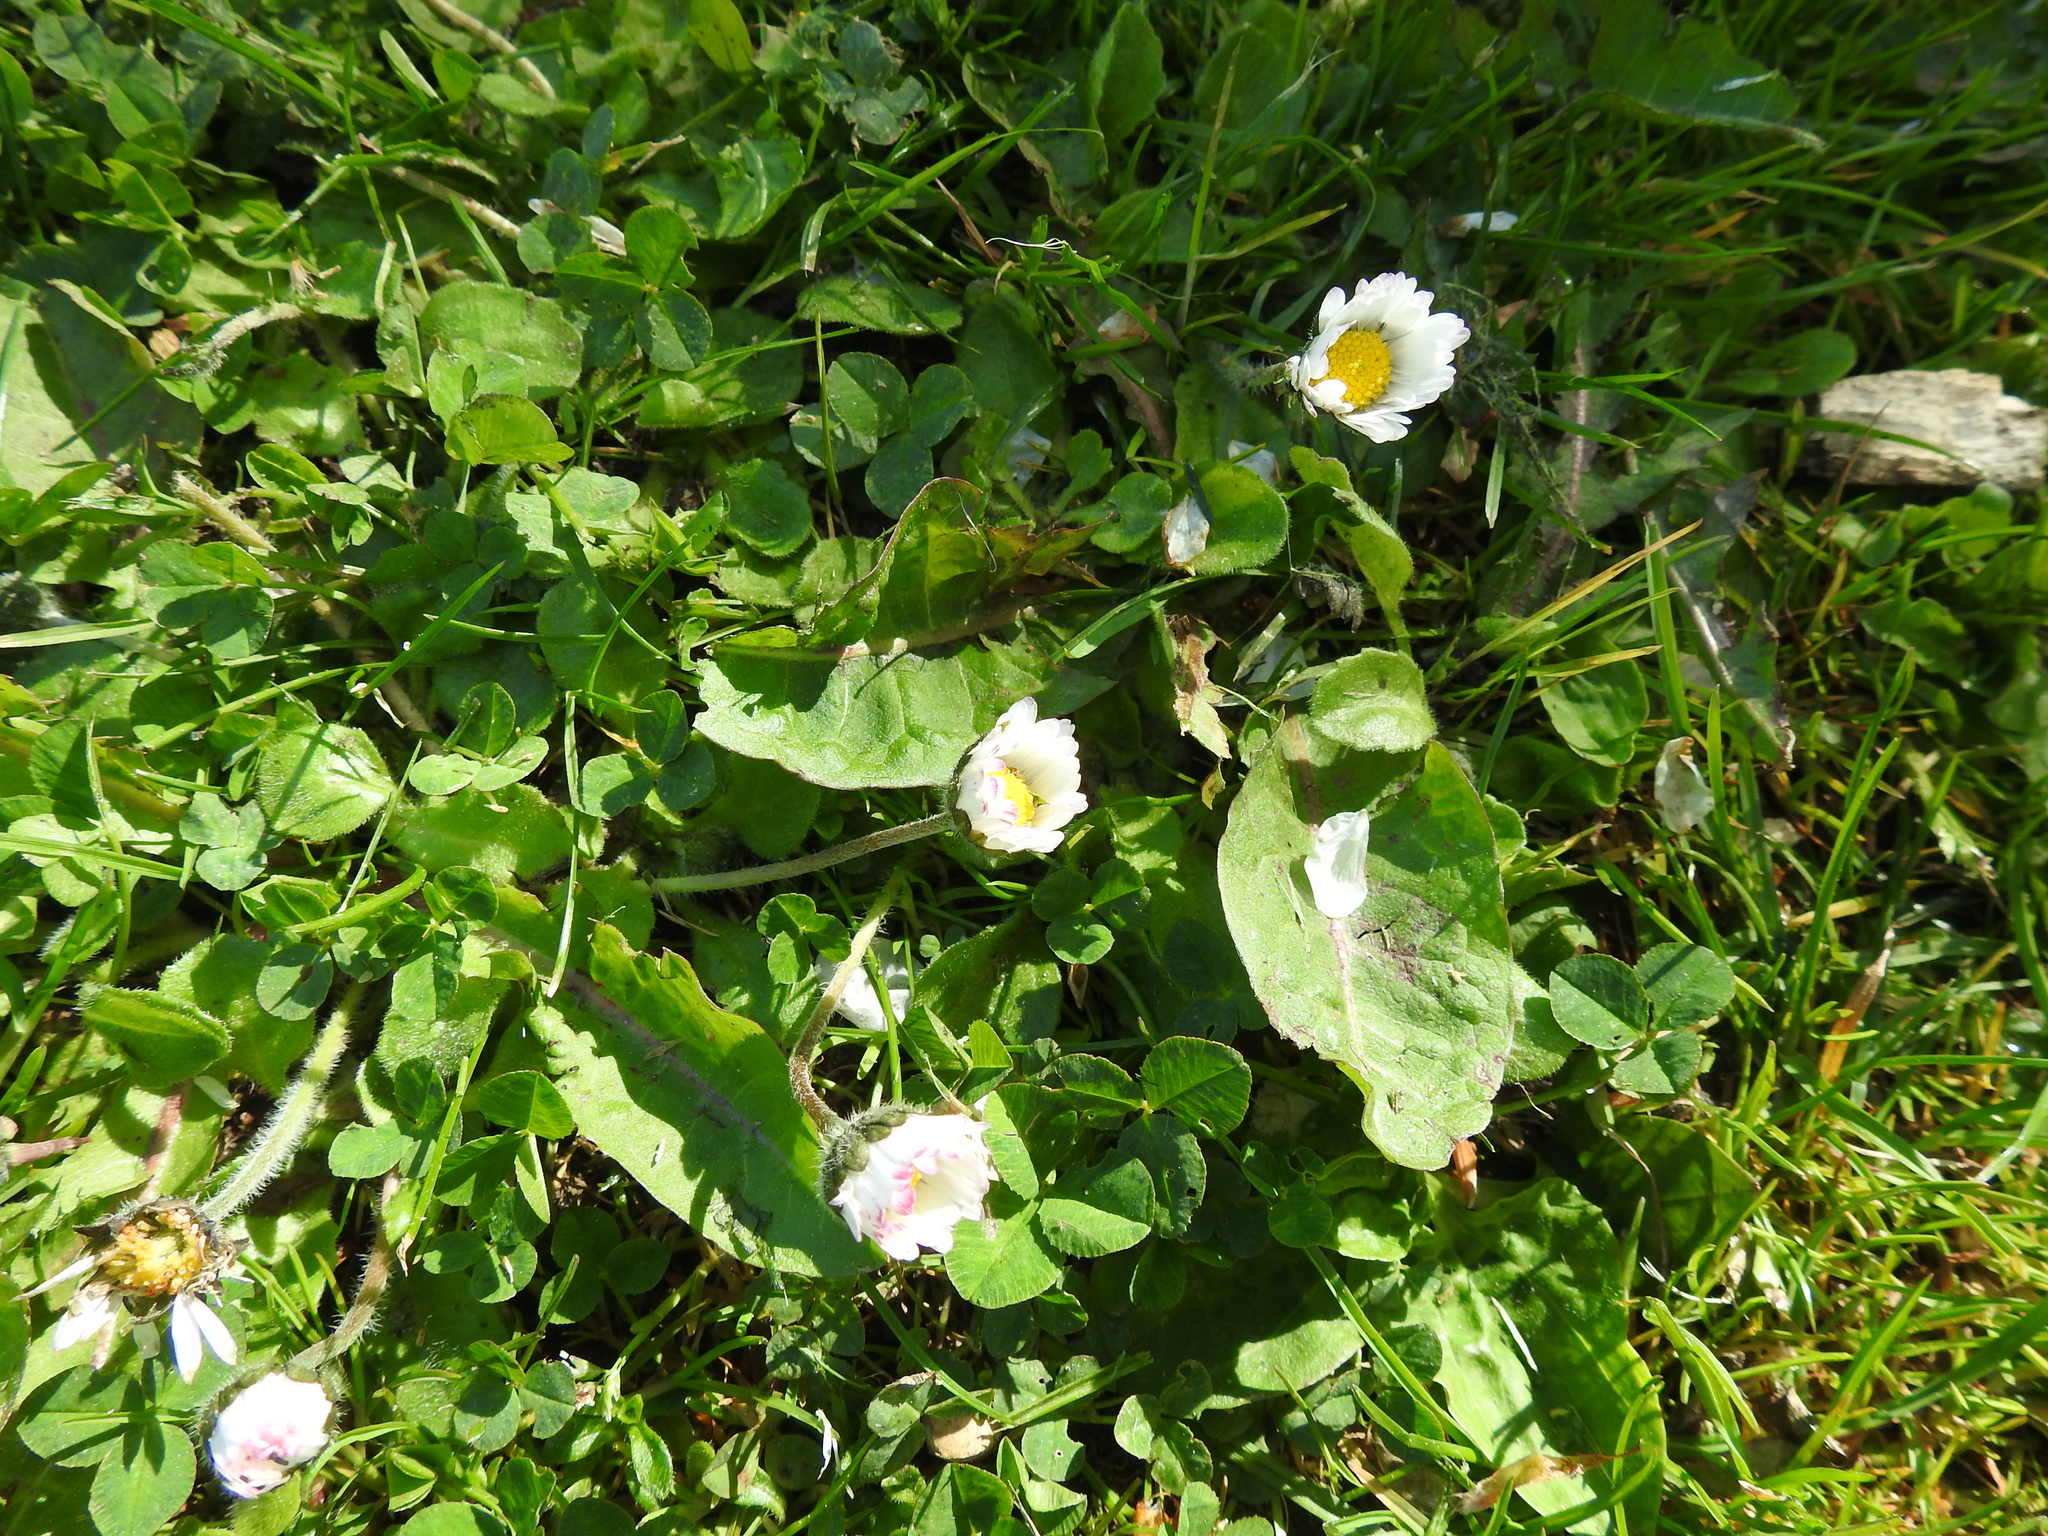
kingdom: Plantae
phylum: Tracheophyta
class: Magnoliopsida
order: Asterales
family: Asteraceae
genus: Bellis
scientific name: Bellis perennis
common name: Lawndaisy
